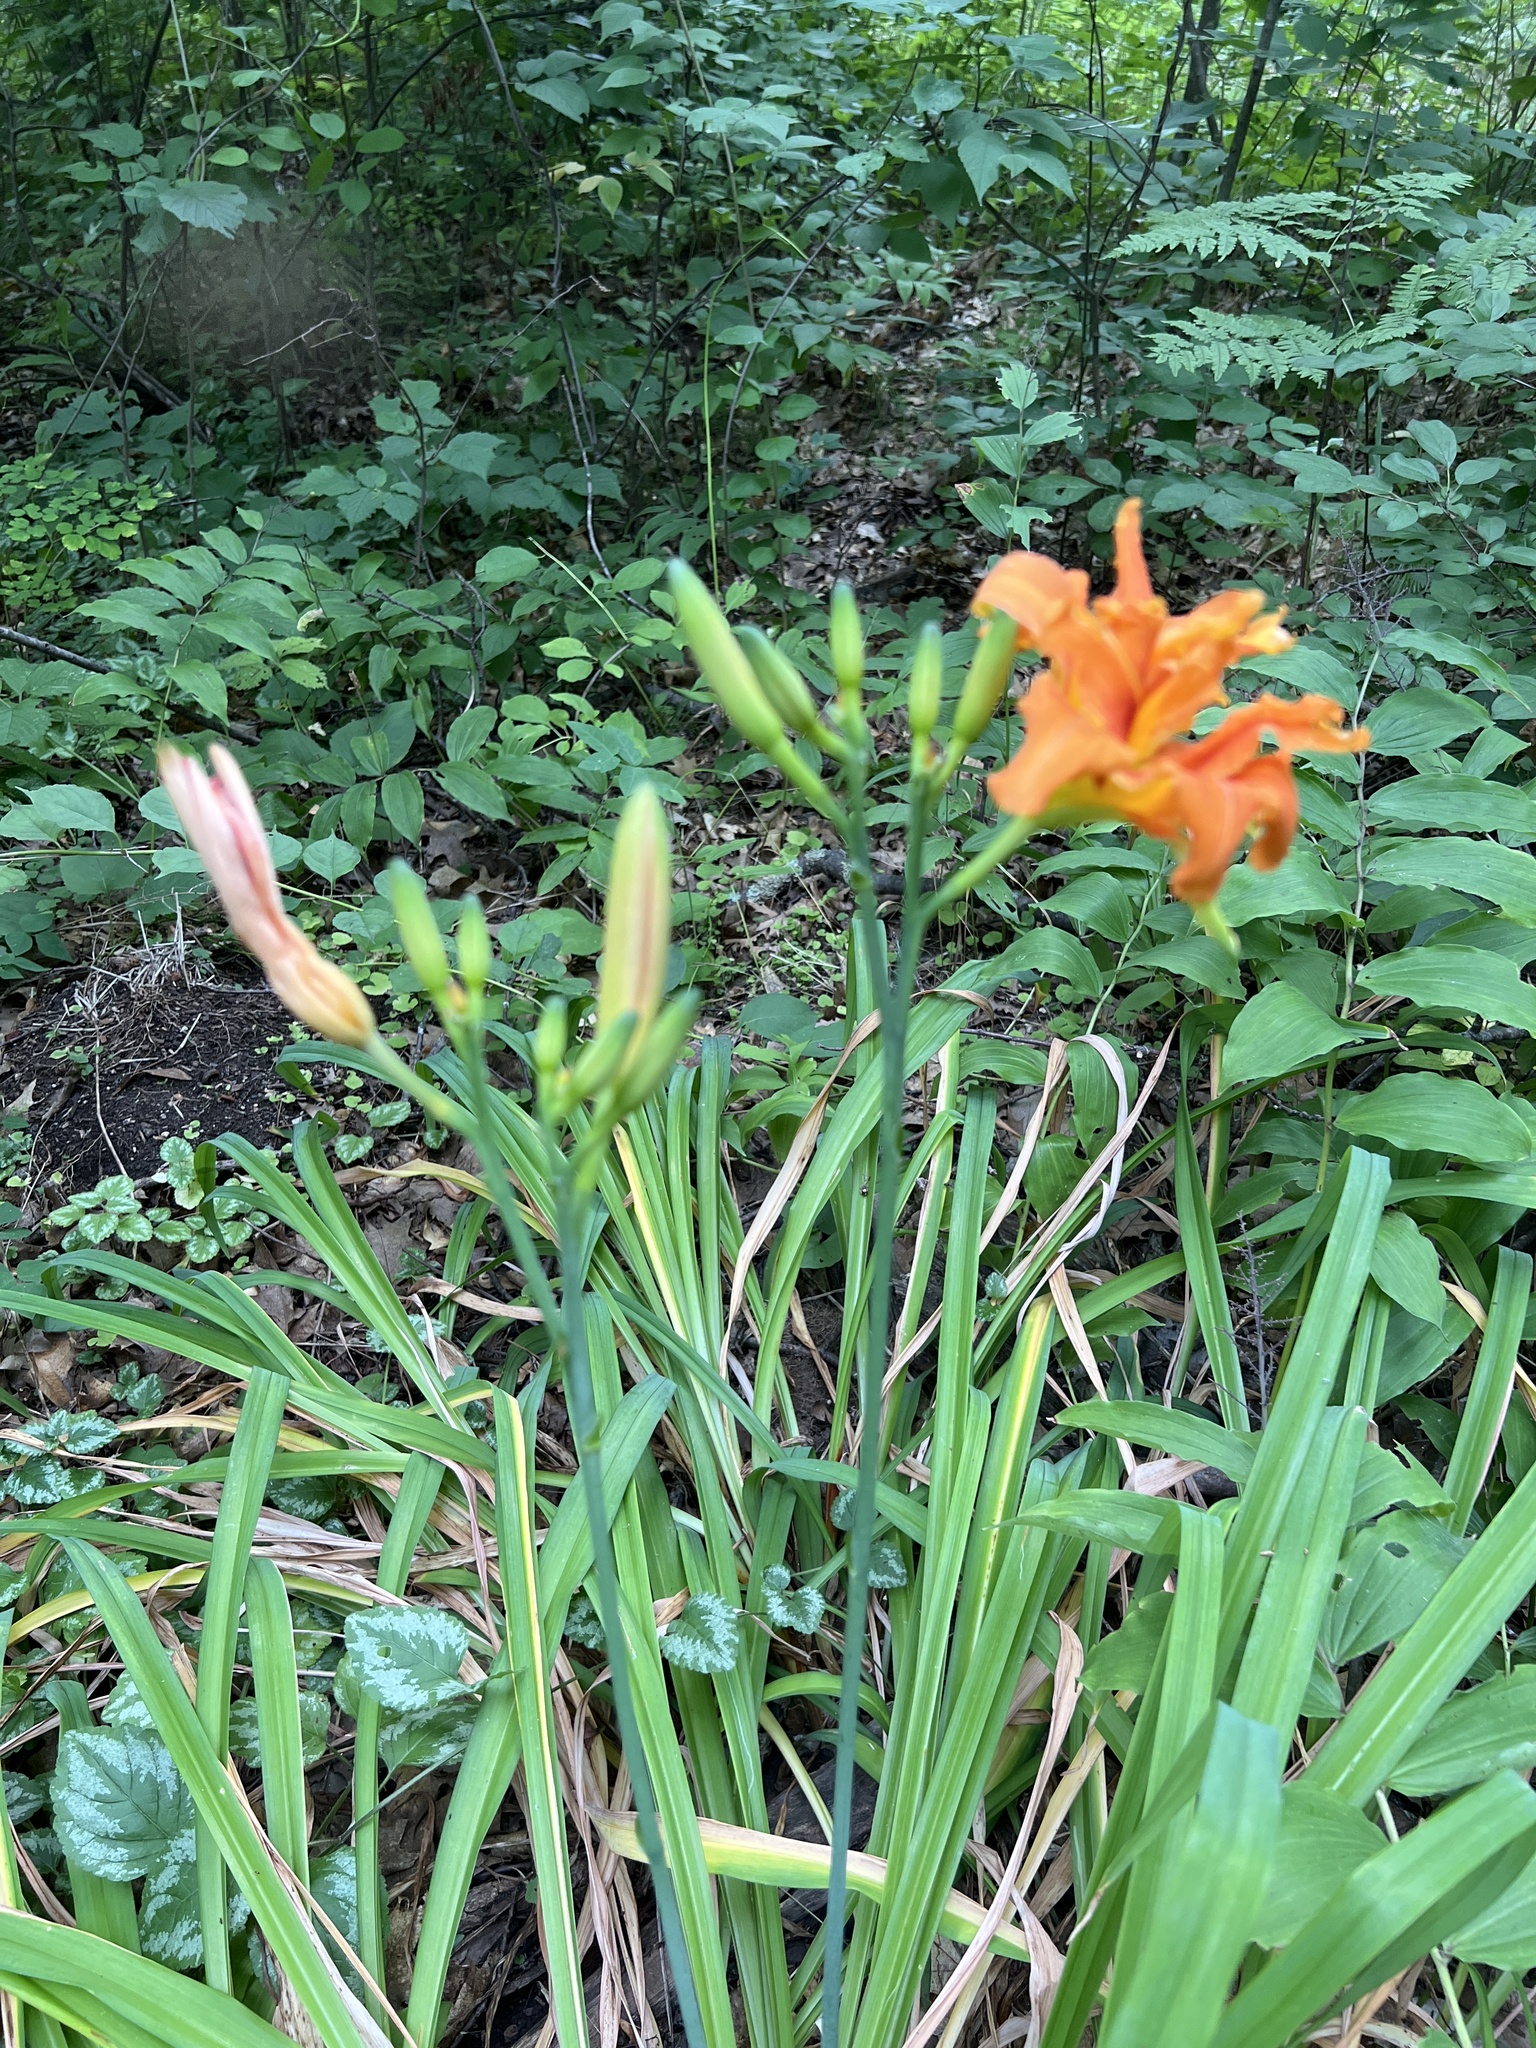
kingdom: Plantae
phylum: Tracheophyta
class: Liliopsida
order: Asparagales
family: Asphodelaceae
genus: Hemerocallis
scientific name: Hemerocallis fulva
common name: Orange day-lily
